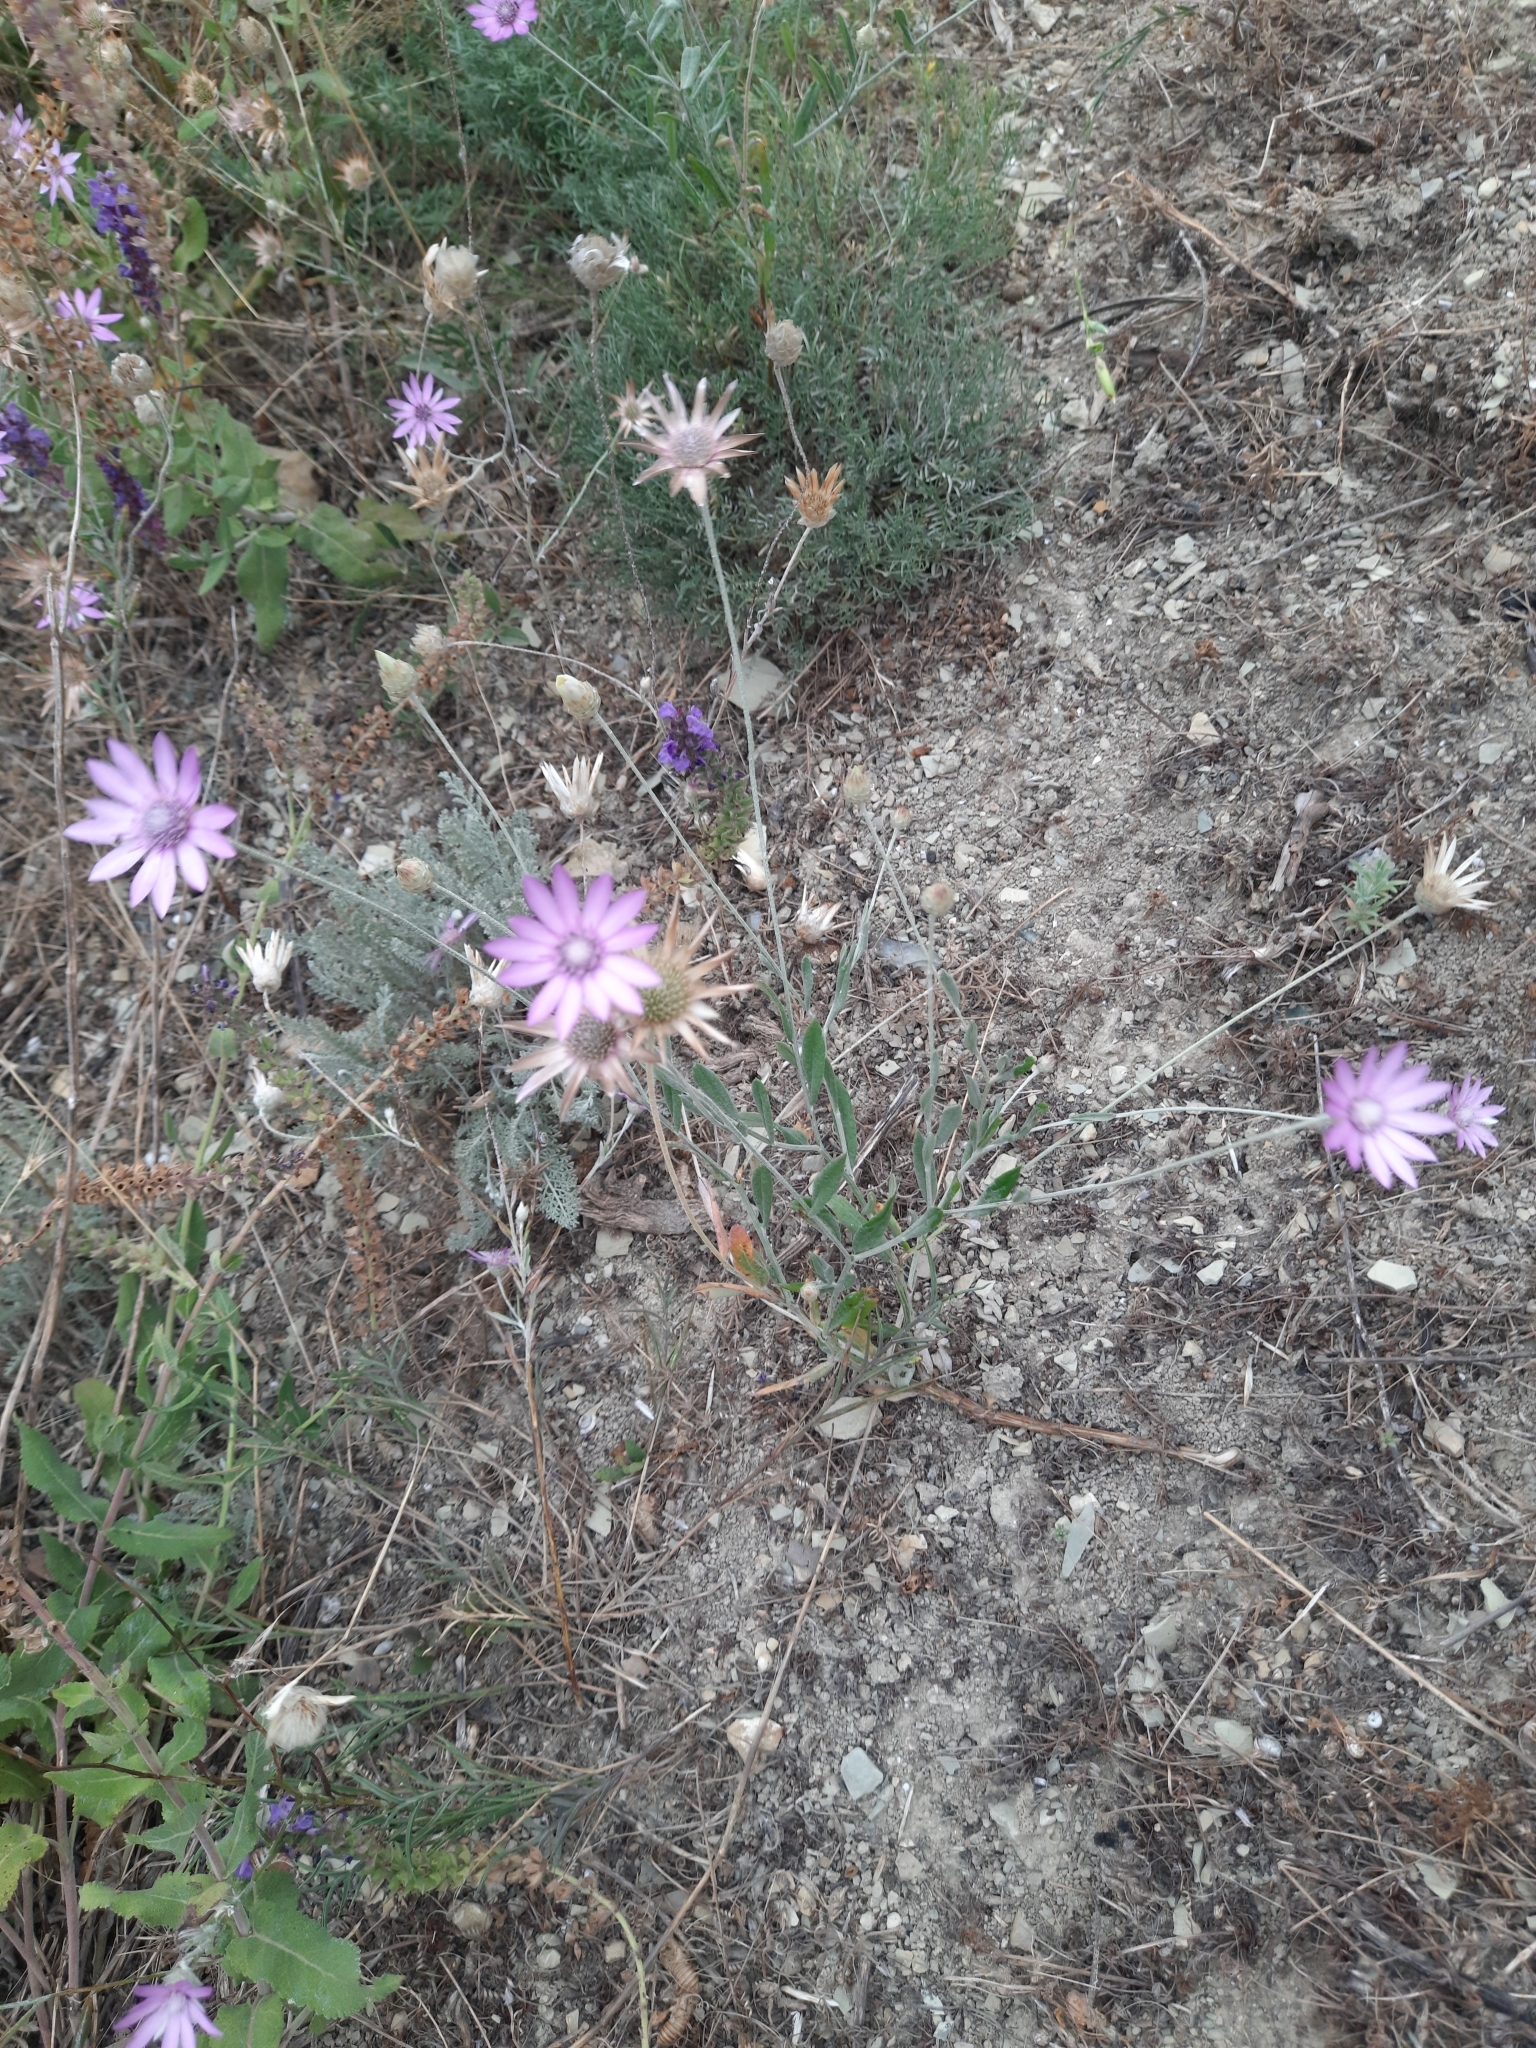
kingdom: Plantae
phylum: Tracheophyta
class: Magnoliopsida
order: Asterales
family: Asteraceae
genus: Xeranthemum
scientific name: Xeranthemum annuum
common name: Immortelle
